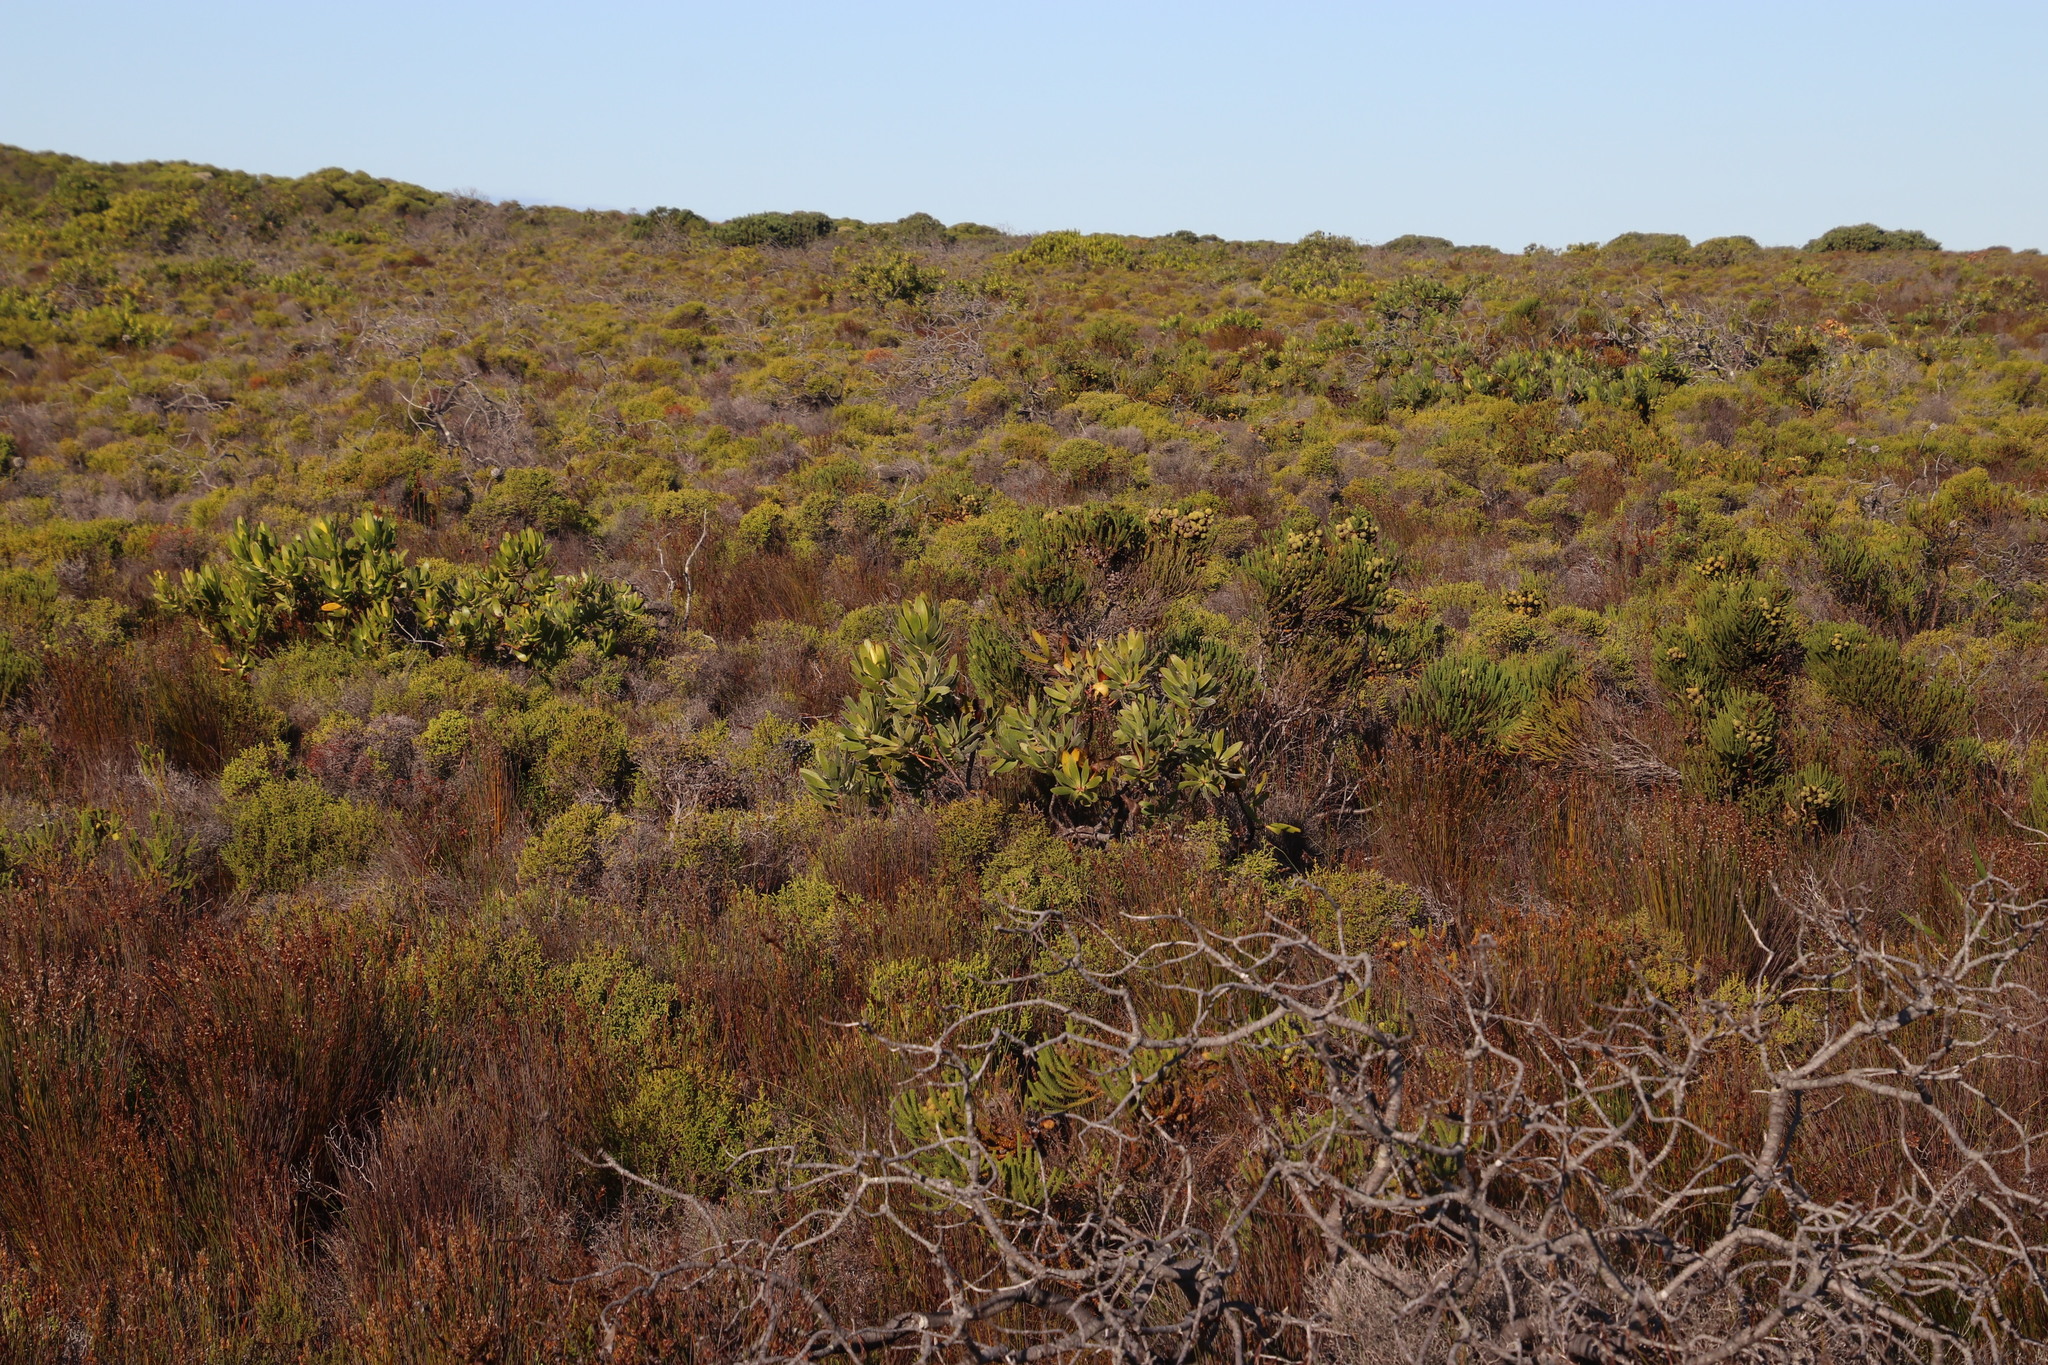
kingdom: Plantae
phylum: Tracheophyta
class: Magnoliopsida
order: Proteales
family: Proteaceae
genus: Leucadendron
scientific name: Leucadendron laureolum
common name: Golden sunshinebush
